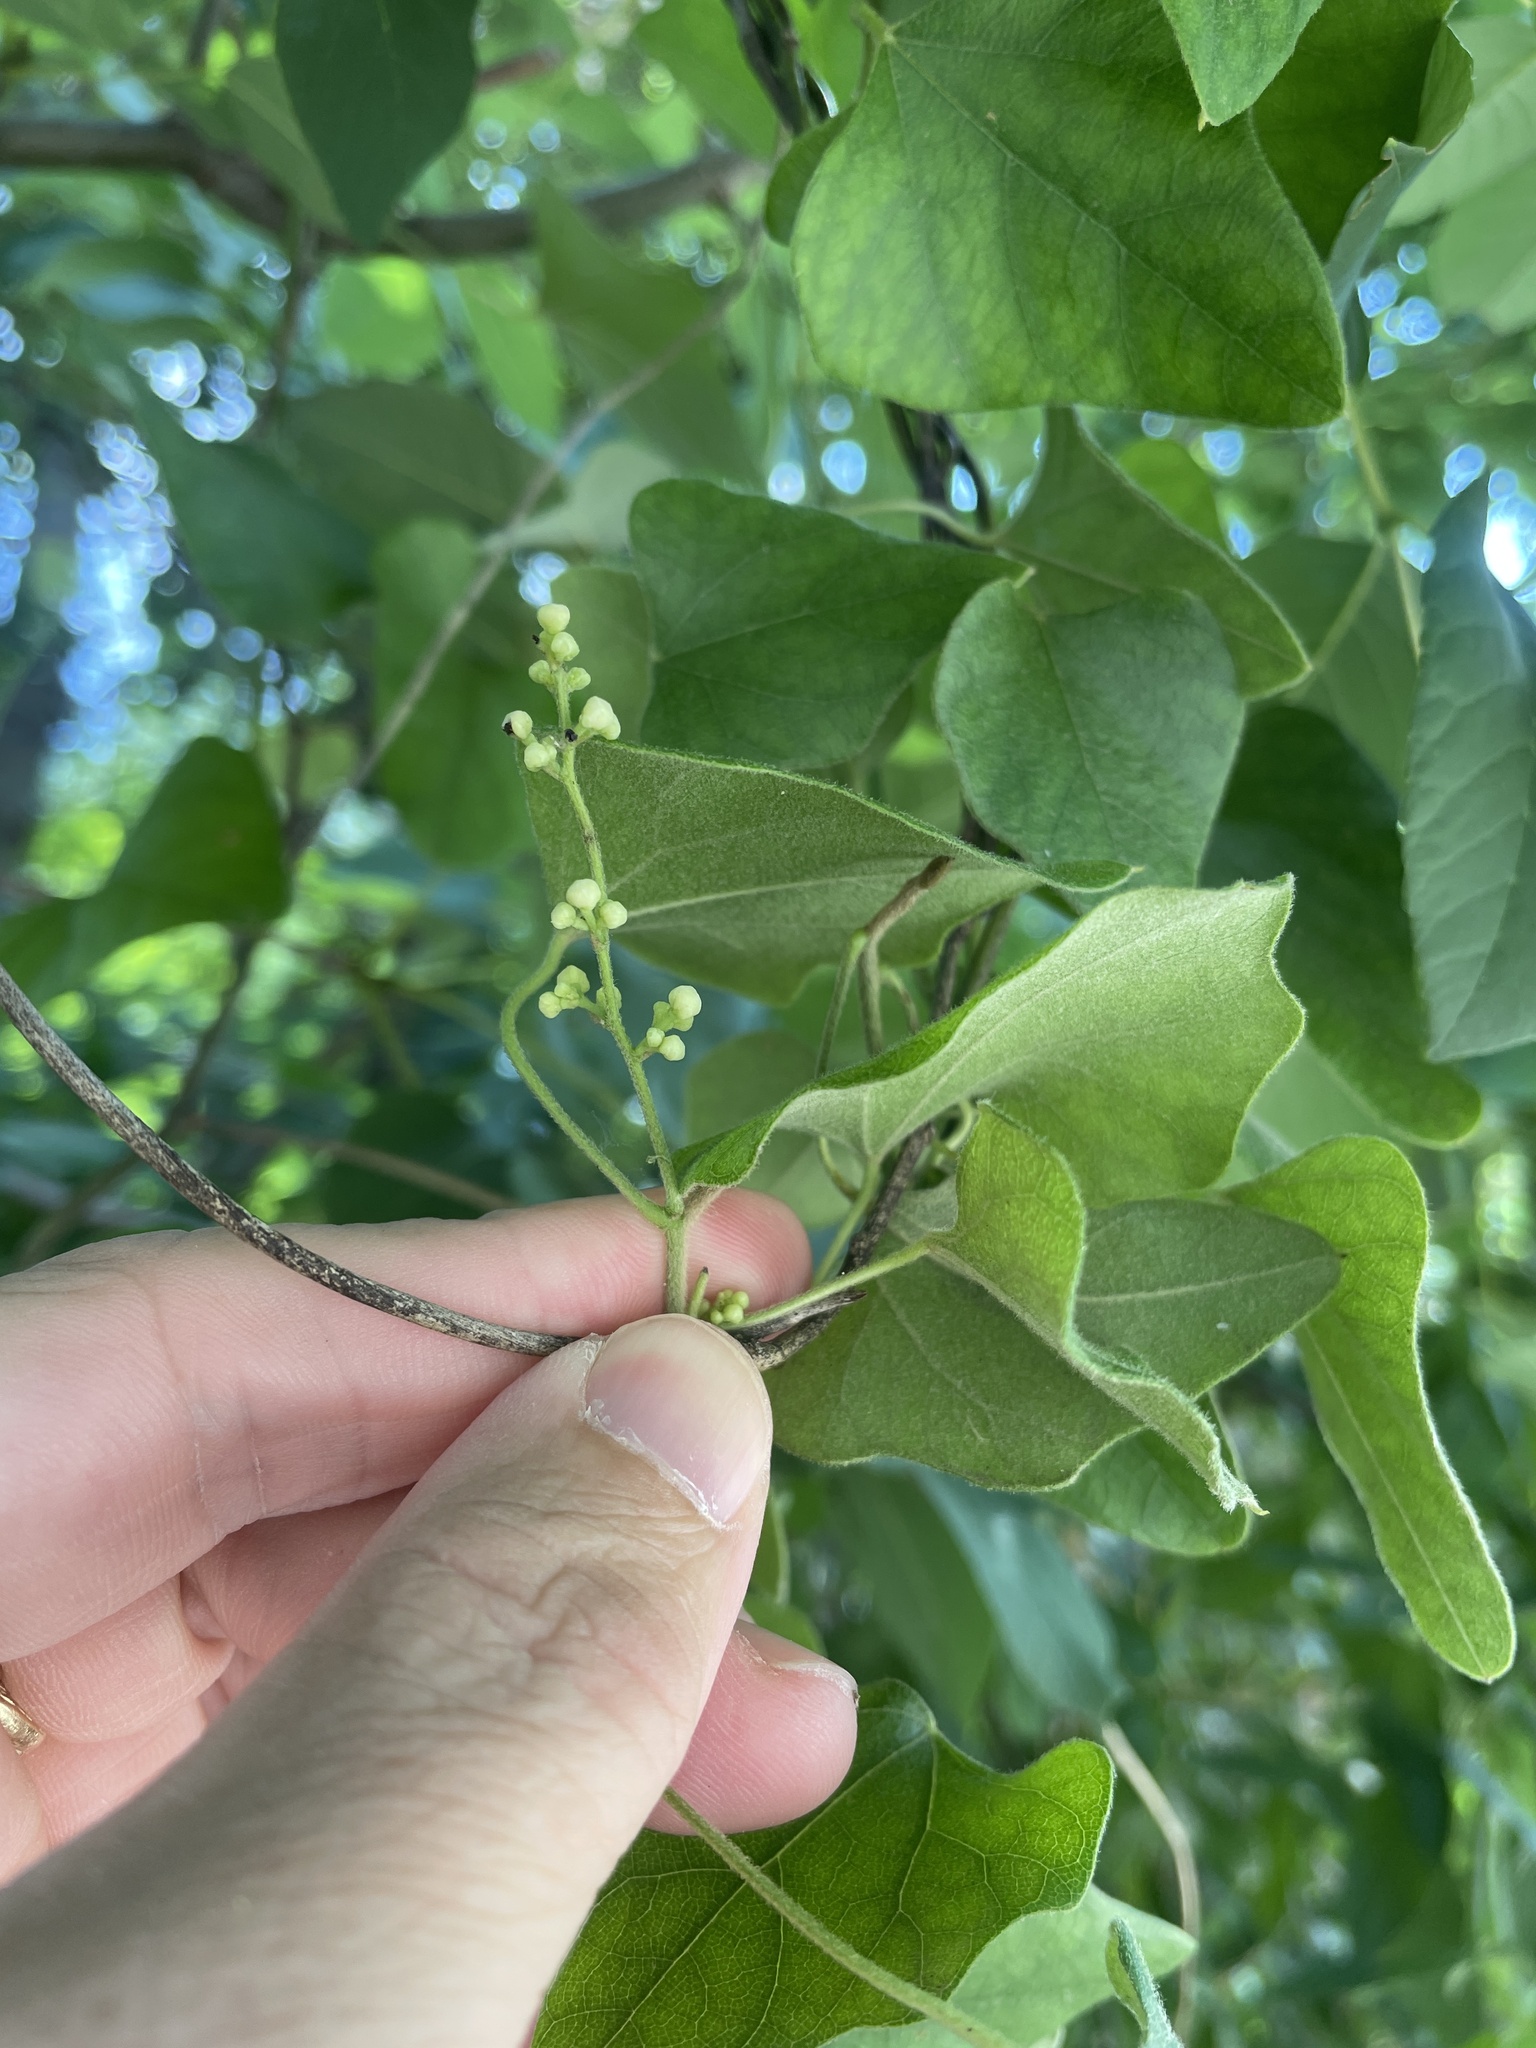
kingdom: Plantae
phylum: Tracheophyta
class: Magnoliopsida
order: Ranunculales
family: Menispermaceae
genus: Cocculus
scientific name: Cocculus carolinus
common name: Carolina moonseed
